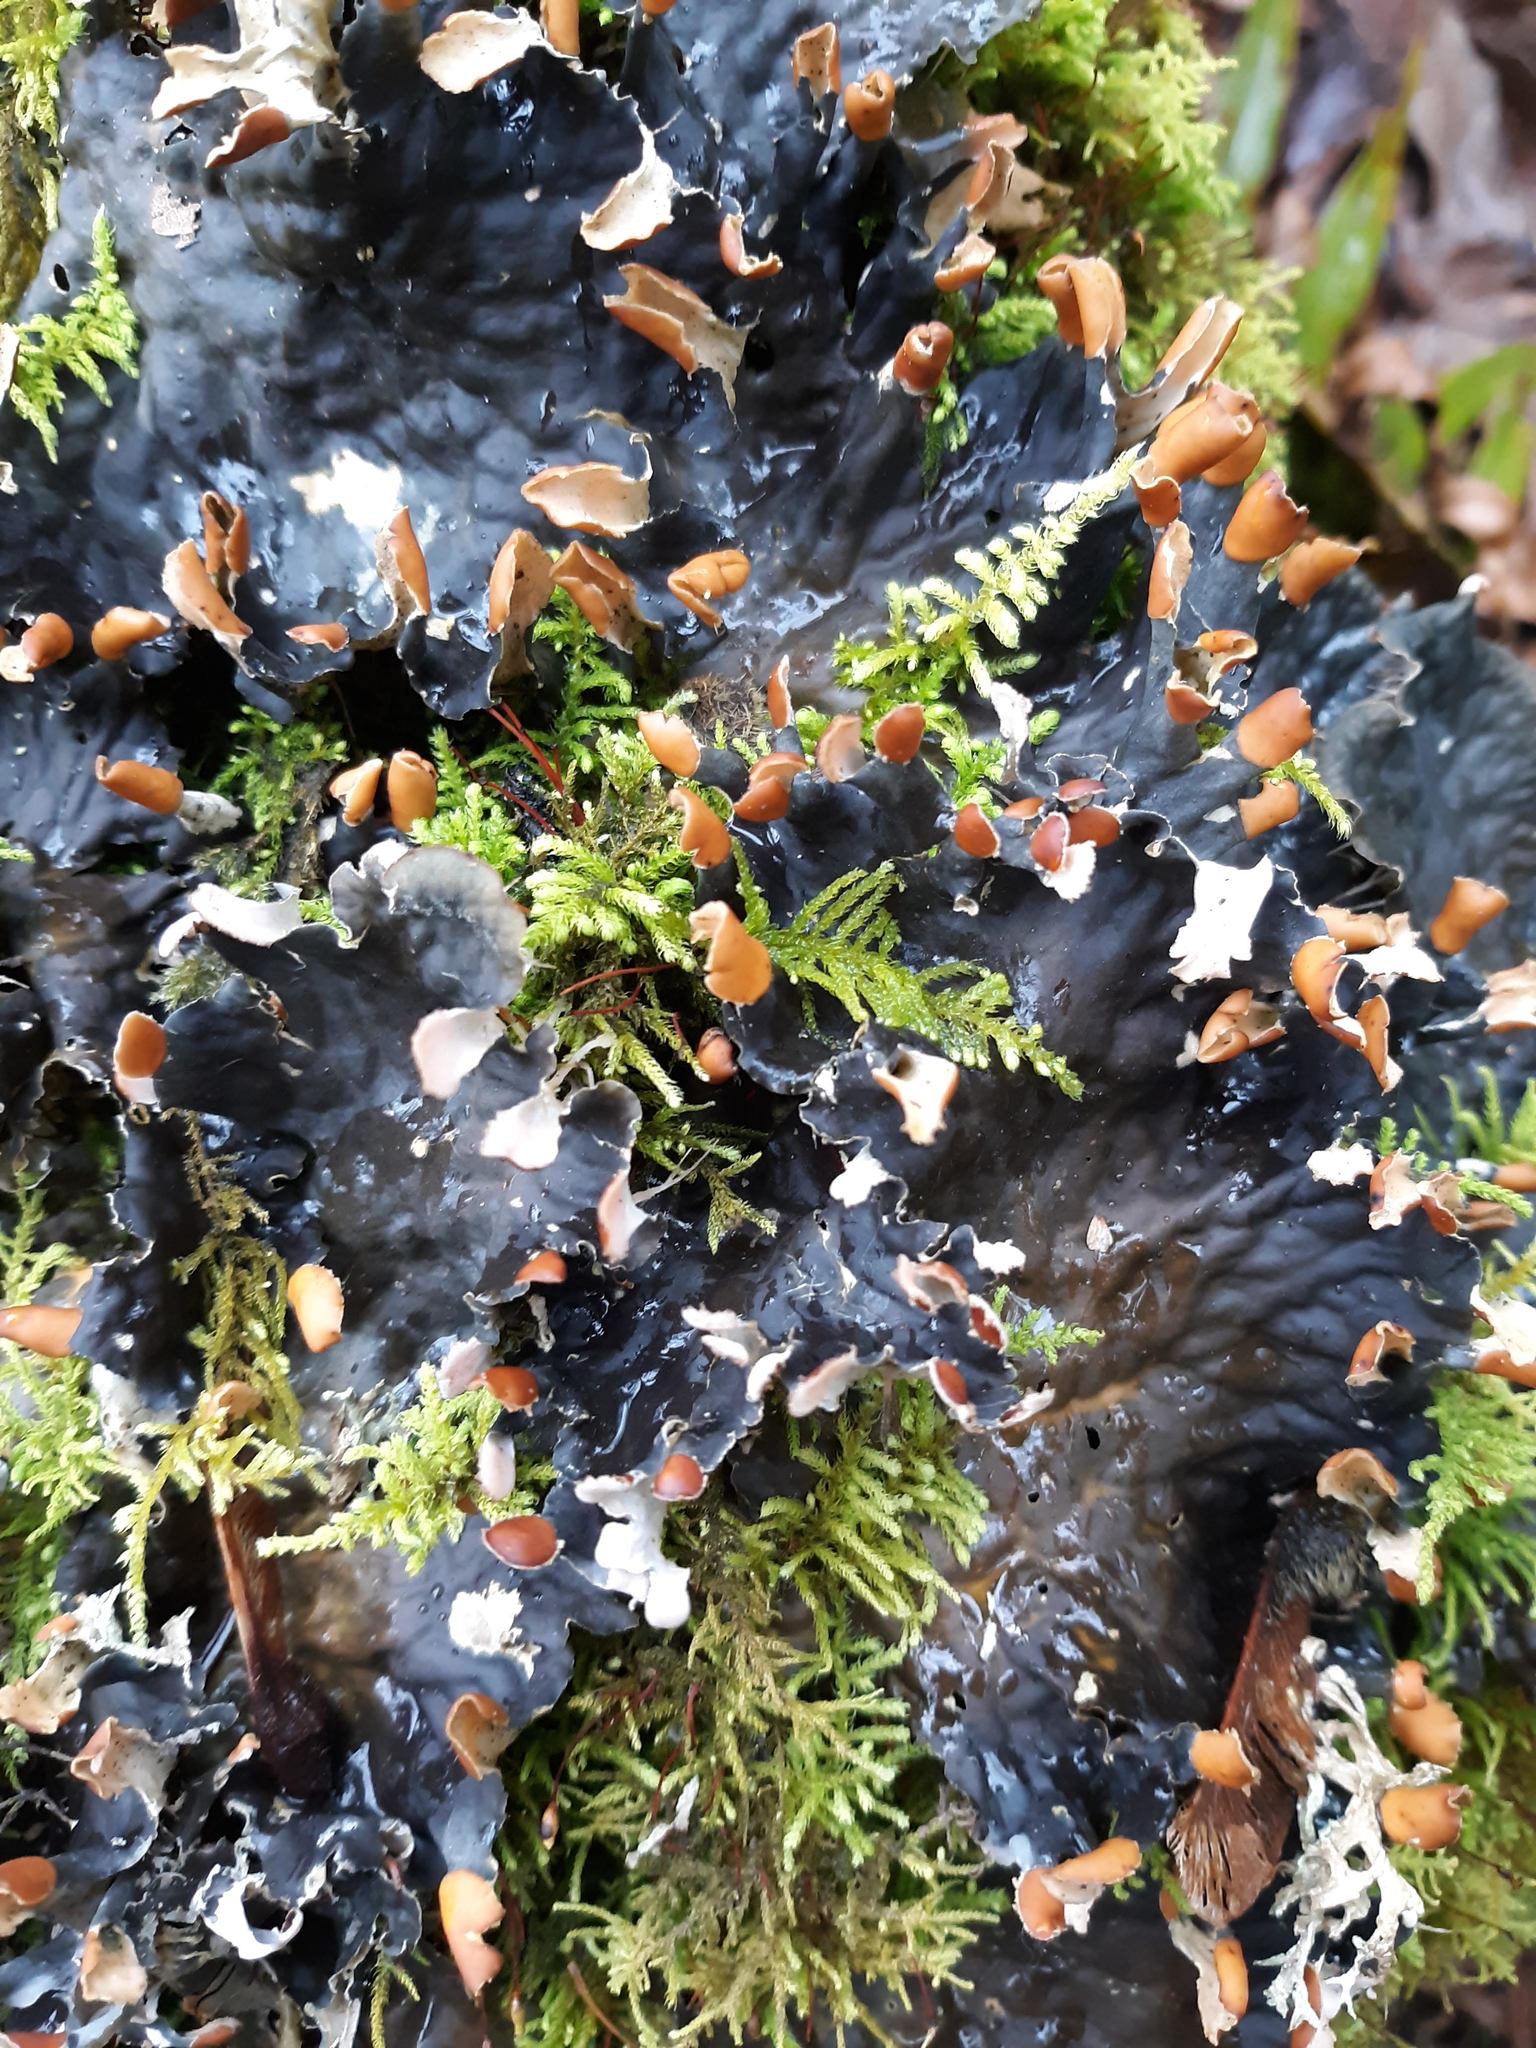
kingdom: Fungi
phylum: Ascomycota
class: Lecanoromycetes
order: Peltigerales
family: Peltigeraceae
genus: Peltigera
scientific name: Peltigera membranacea
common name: Membranous pelt lichen
